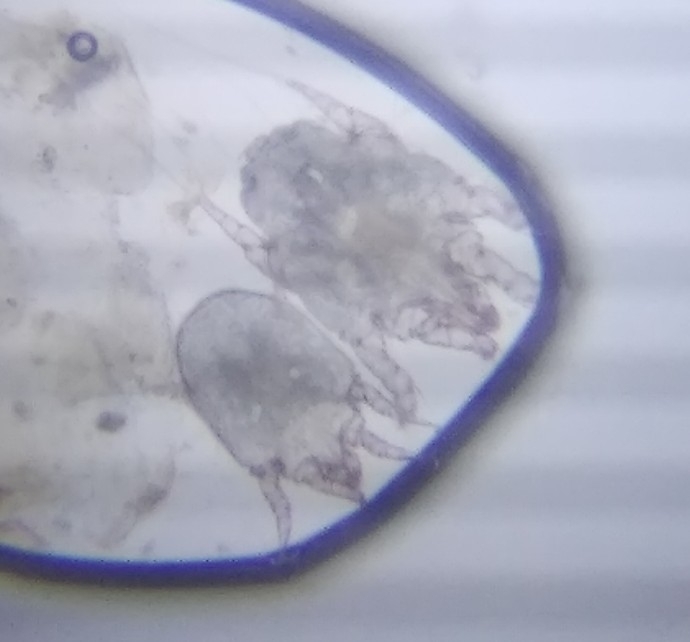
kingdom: Animalia
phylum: Arthropoda
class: Arachnida
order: Sarcoptiformes
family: Psoroptidae
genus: Otodectes
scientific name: Otodectes cynotis
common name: Mite
